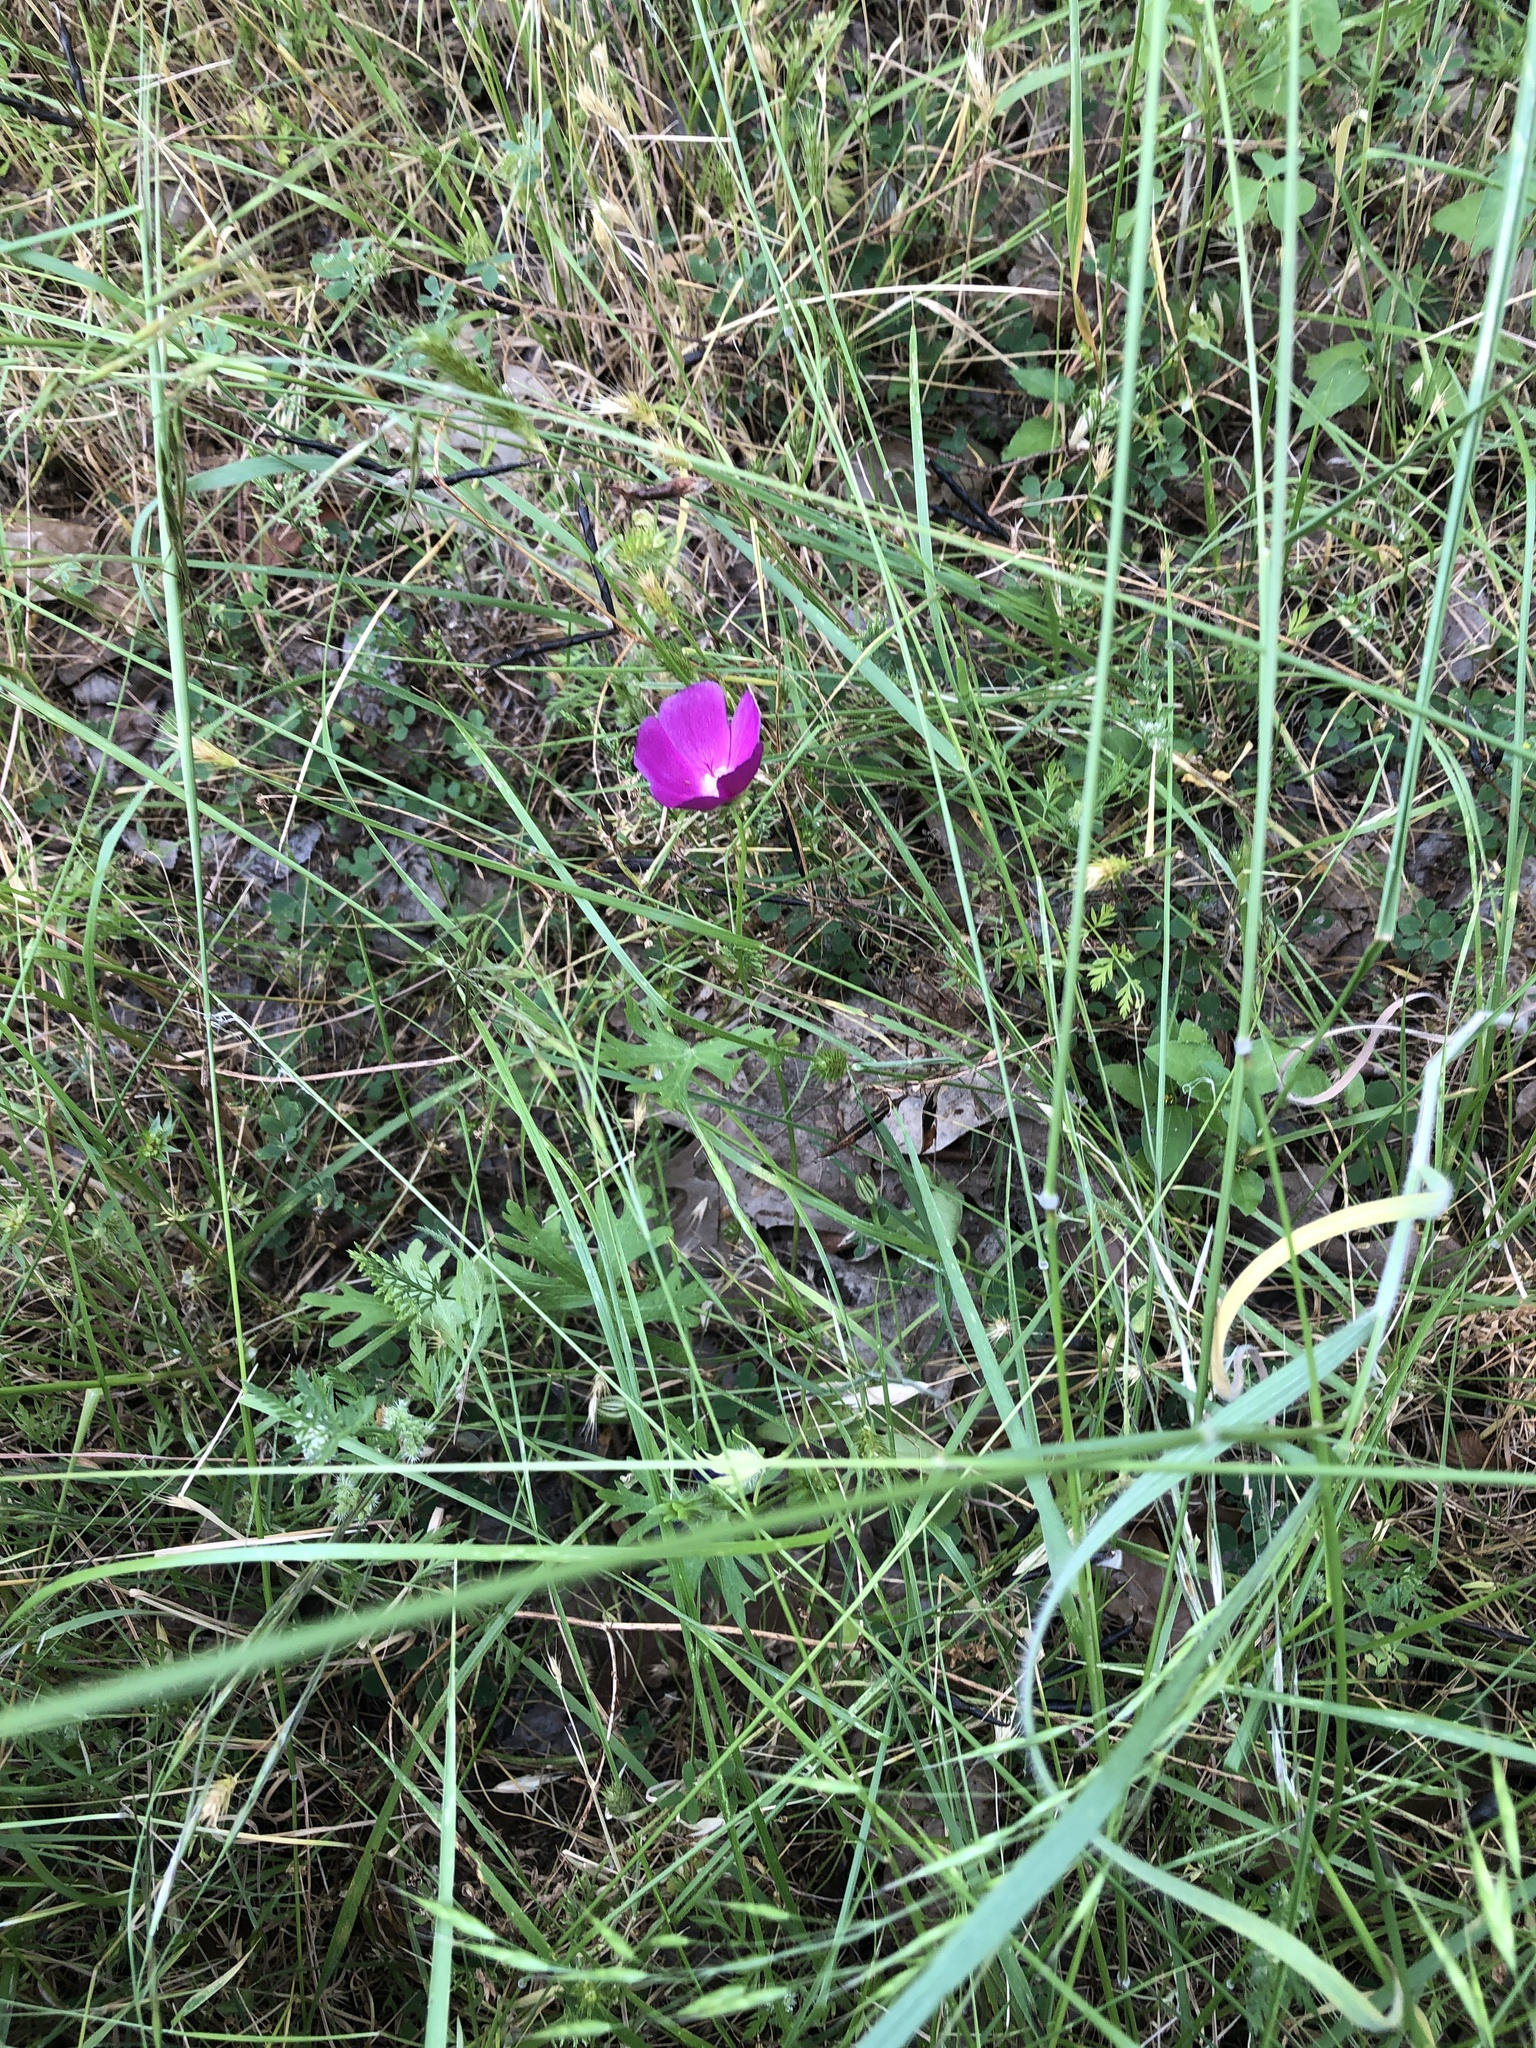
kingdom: Plantae
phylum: Tracheophyta
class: Magnoliopsida
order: Malvales
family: Malvaceae
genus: Callirhoe
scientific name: Callirhoe involucrata
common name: Purple poppy-mallow
